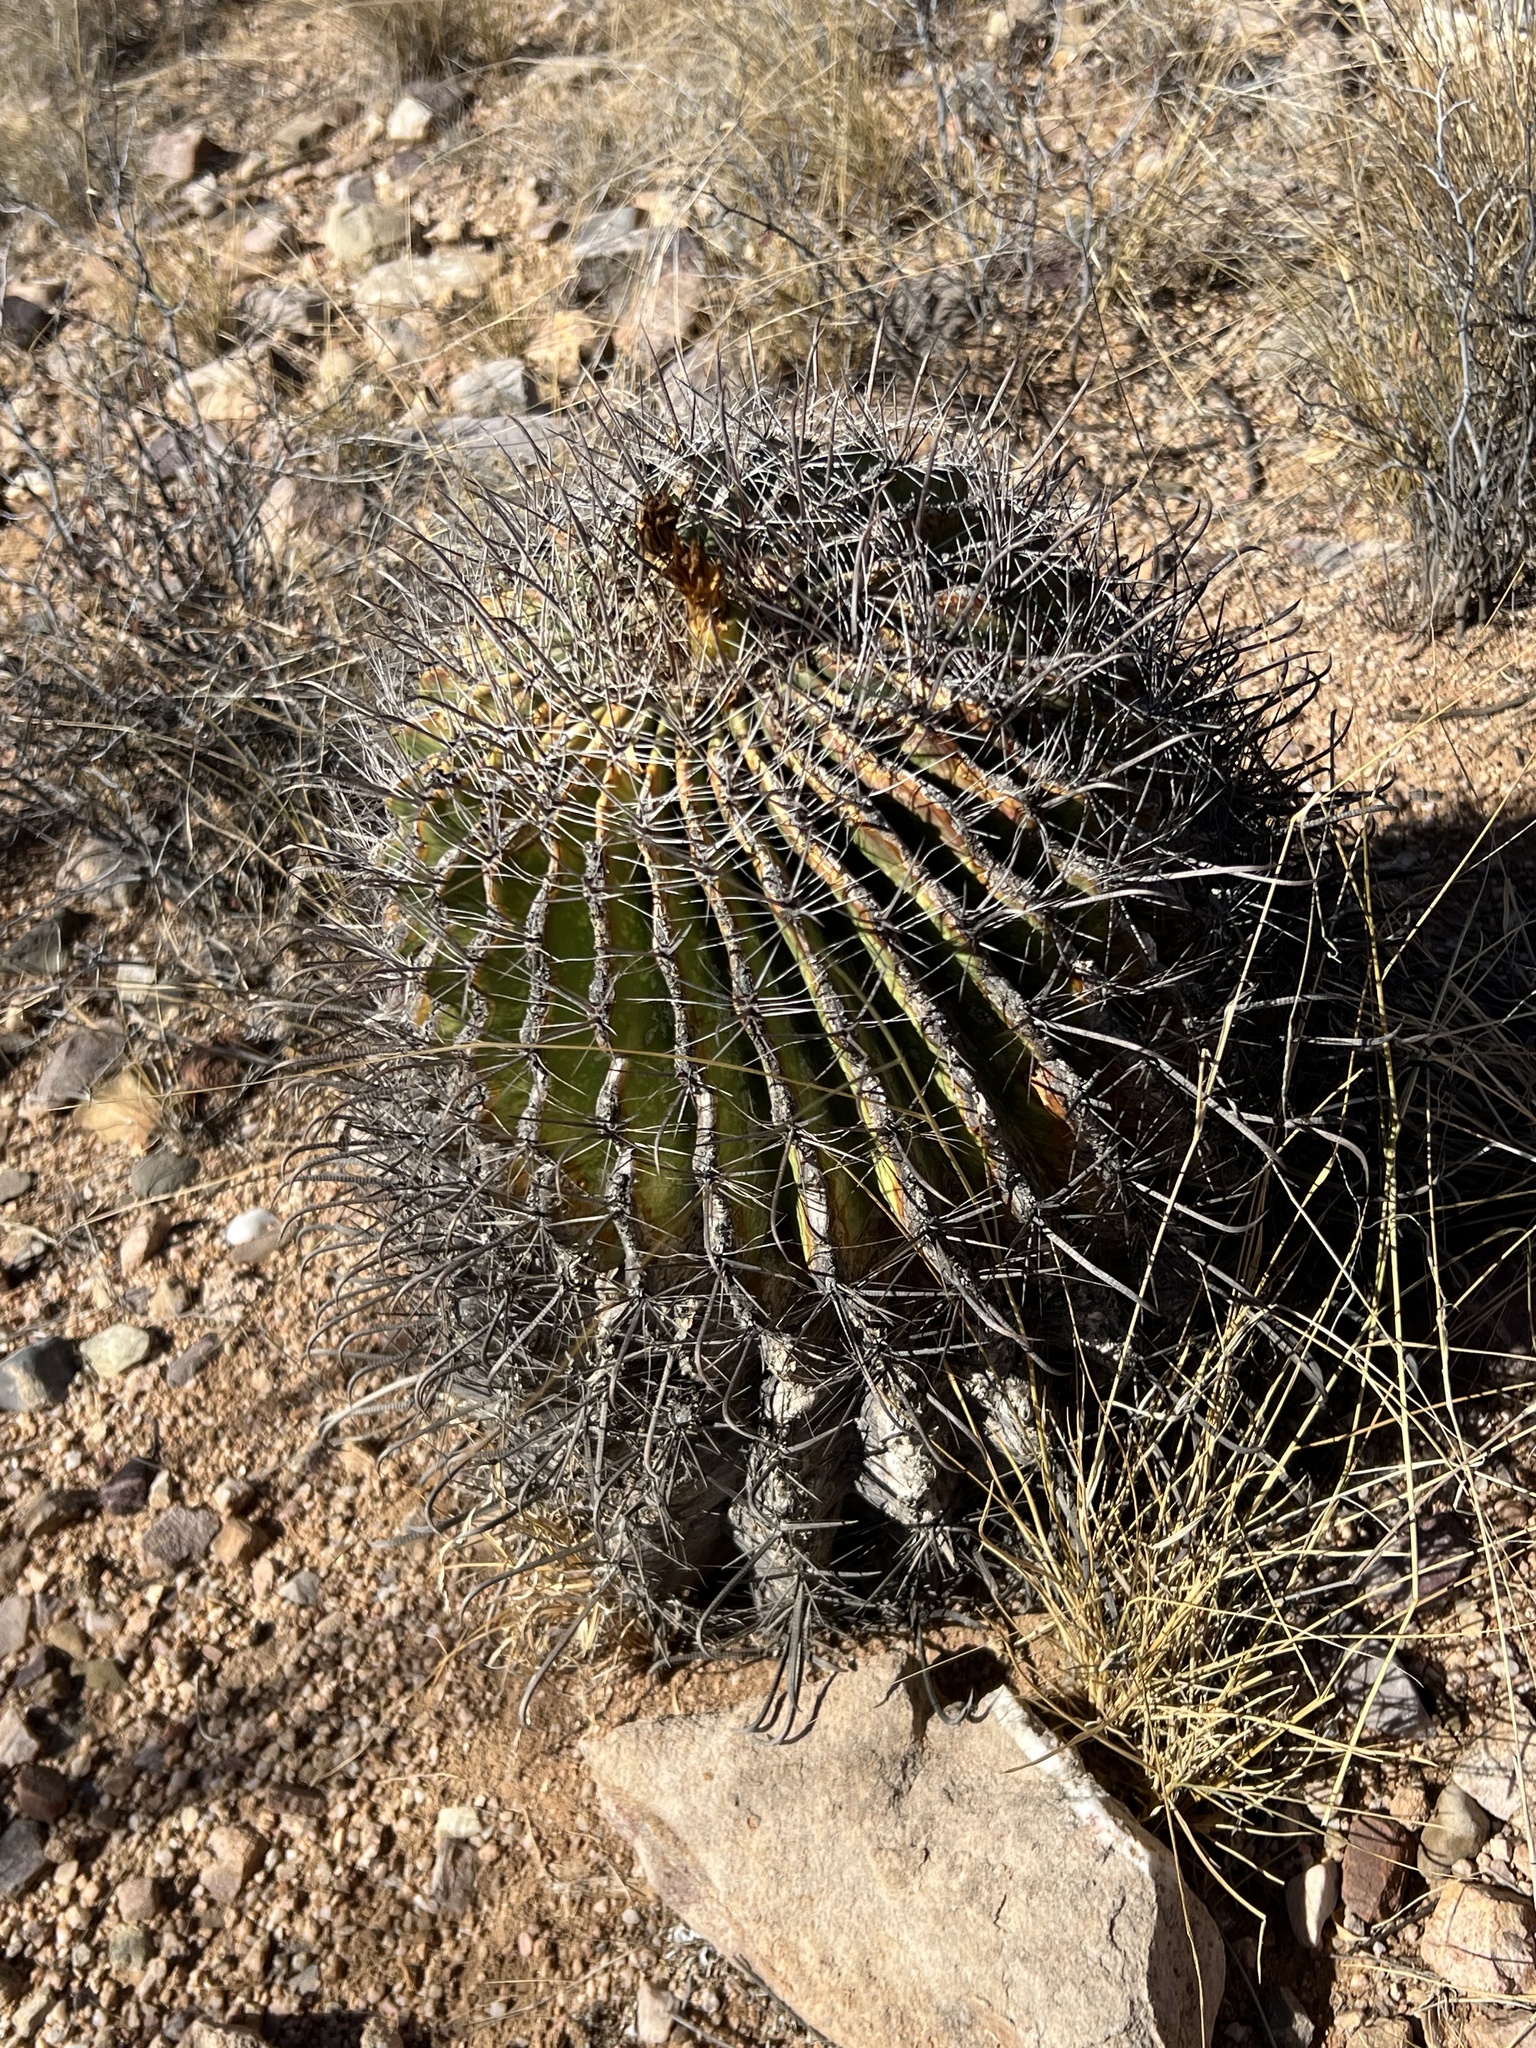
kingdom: Plantae
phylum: Tracheophyta
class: Magnoliopsida
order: Caryophyllales
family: Cactaceae
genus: Ferocactus
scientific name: Ferocactus wislizeni
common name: Candy barrel cactus
